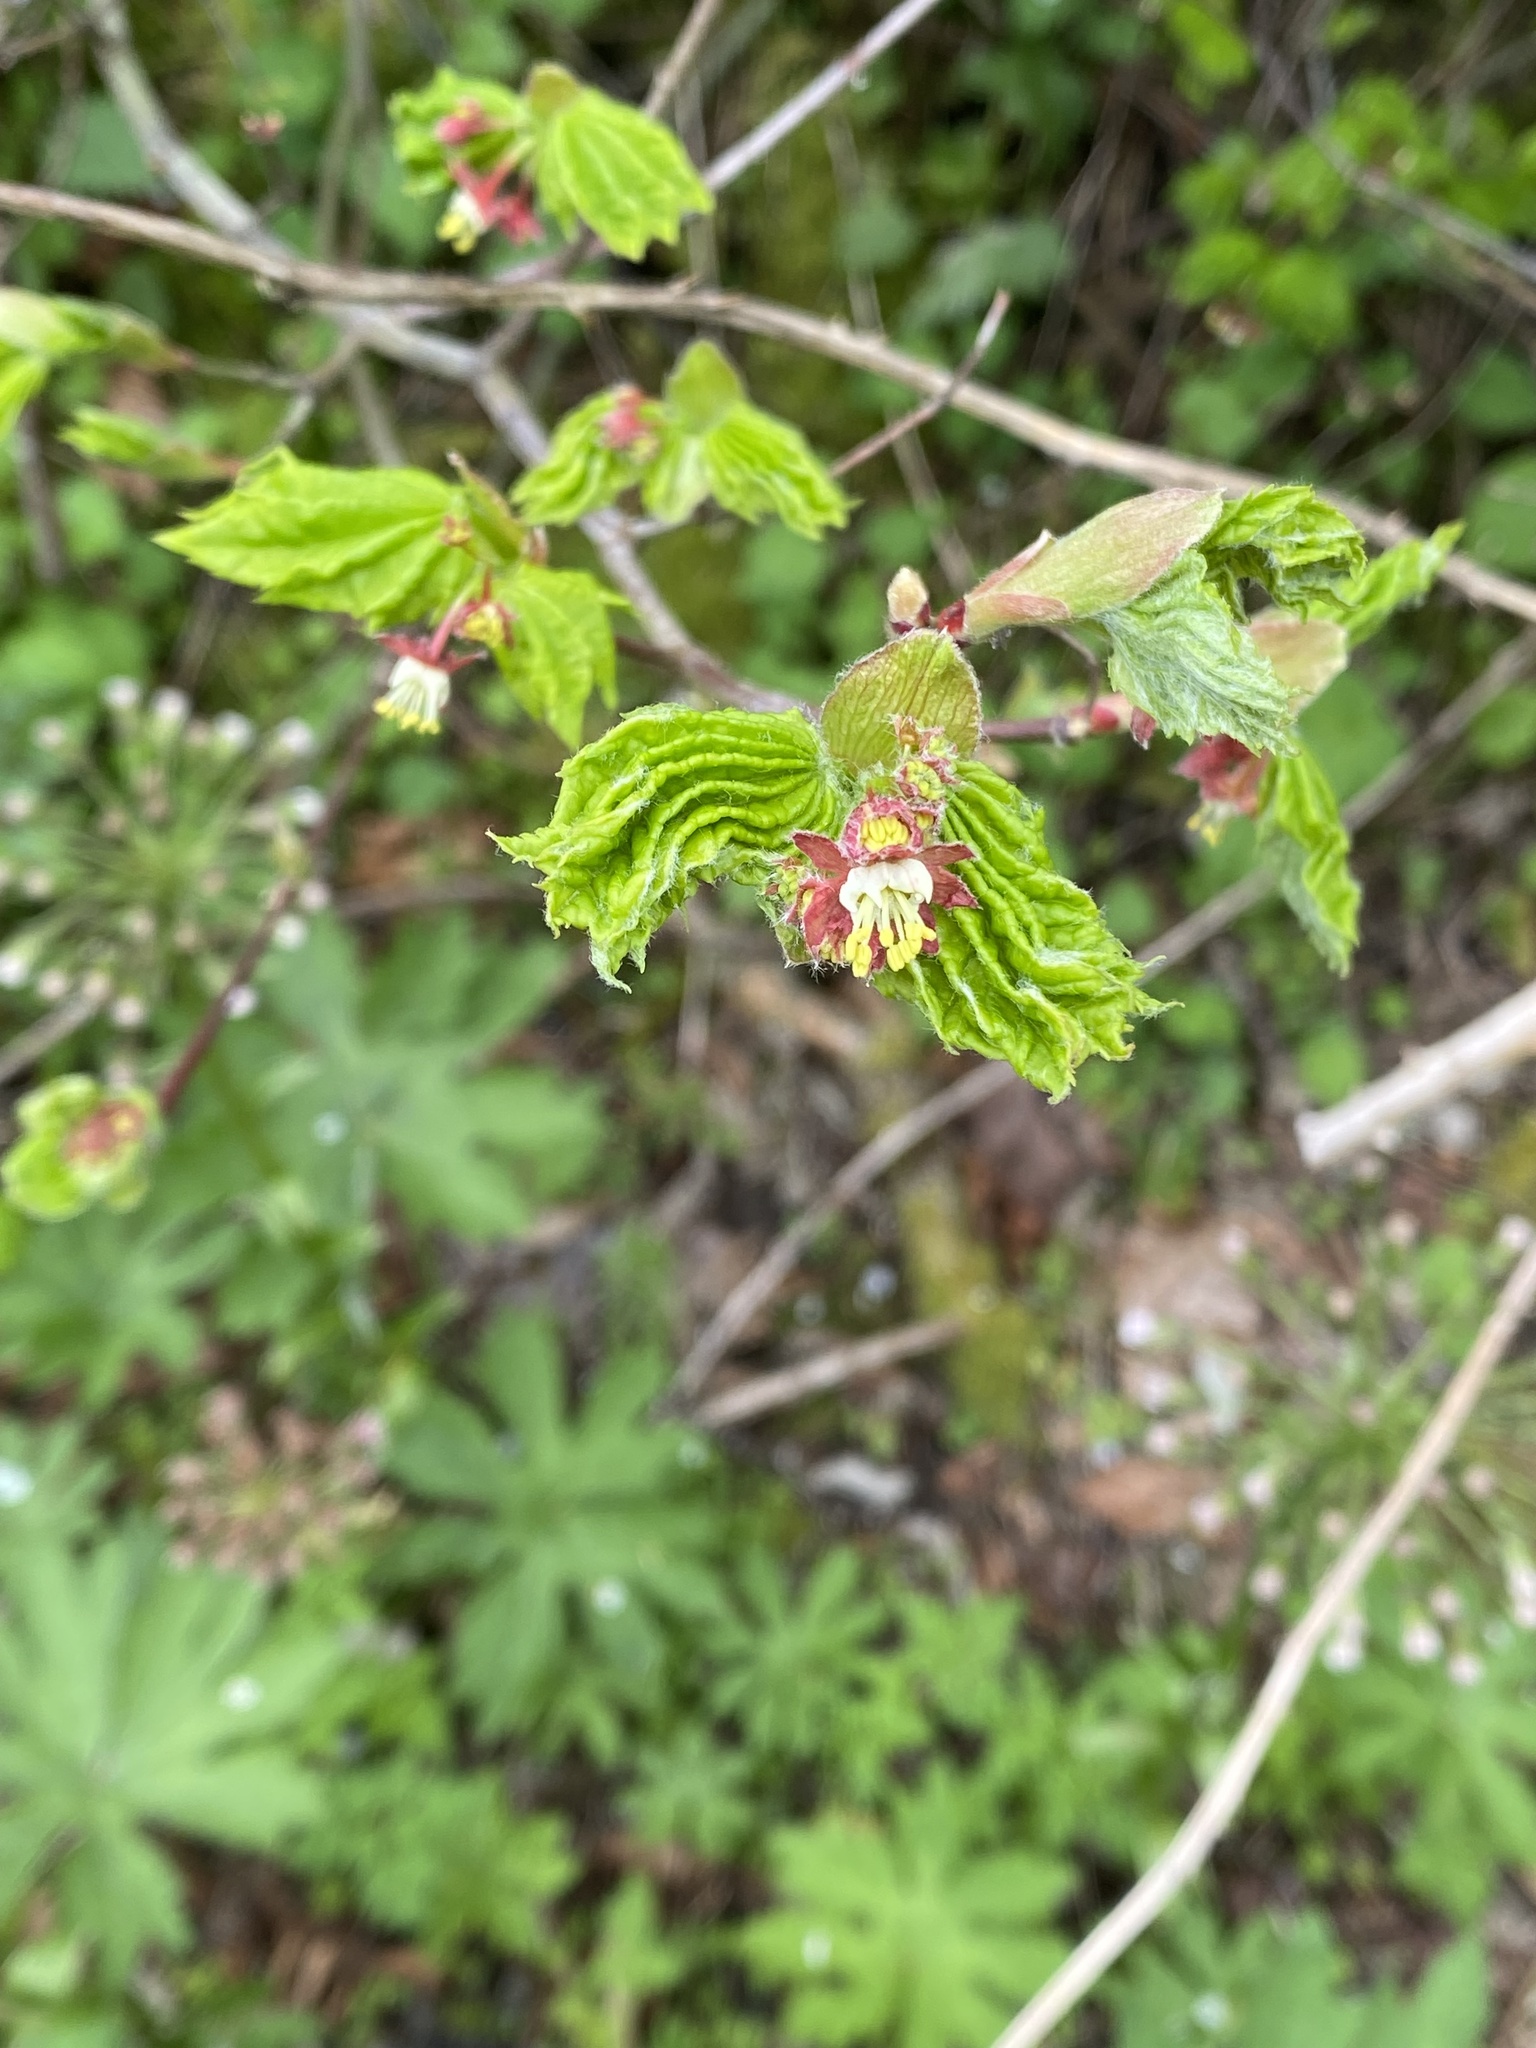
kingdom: Plantae
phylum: Tracheophyta
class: Magnoliopsida
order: Sapindales
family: Sapindaceae
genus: Acer
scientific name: Acer circinatum
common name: Vine maple
